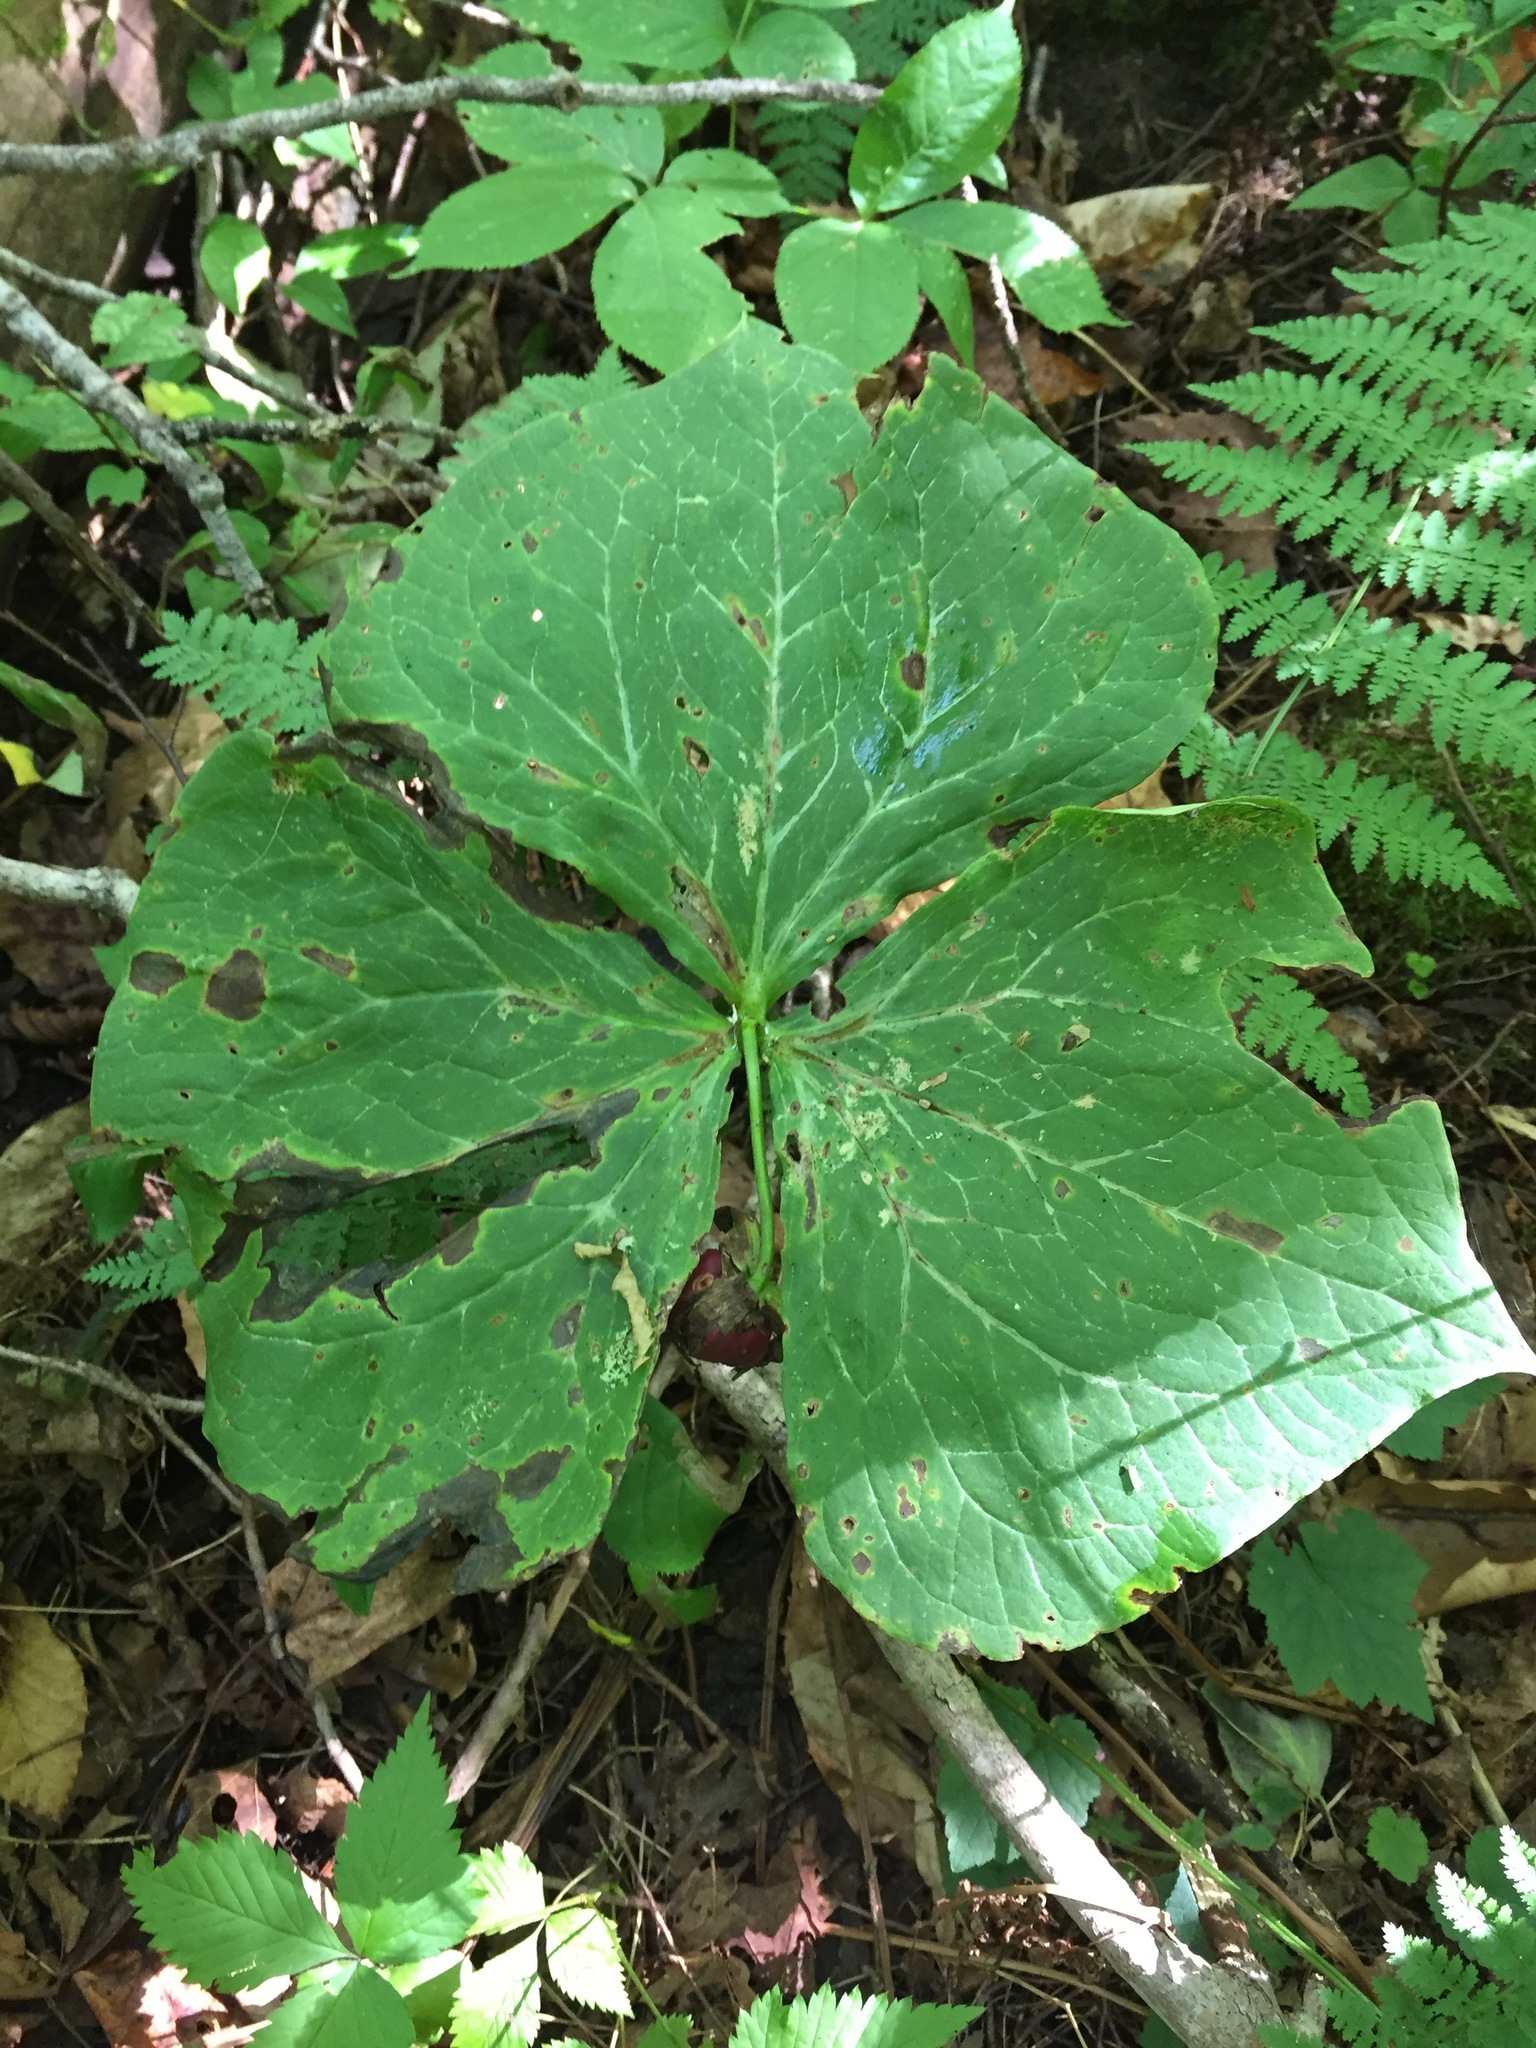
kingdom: Plantae
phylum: Tracheophyta
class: Liliopsida
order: Liliales
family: Melanthiaceae
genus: Trillium
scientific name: Trillium erectum
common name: Purple trillium
